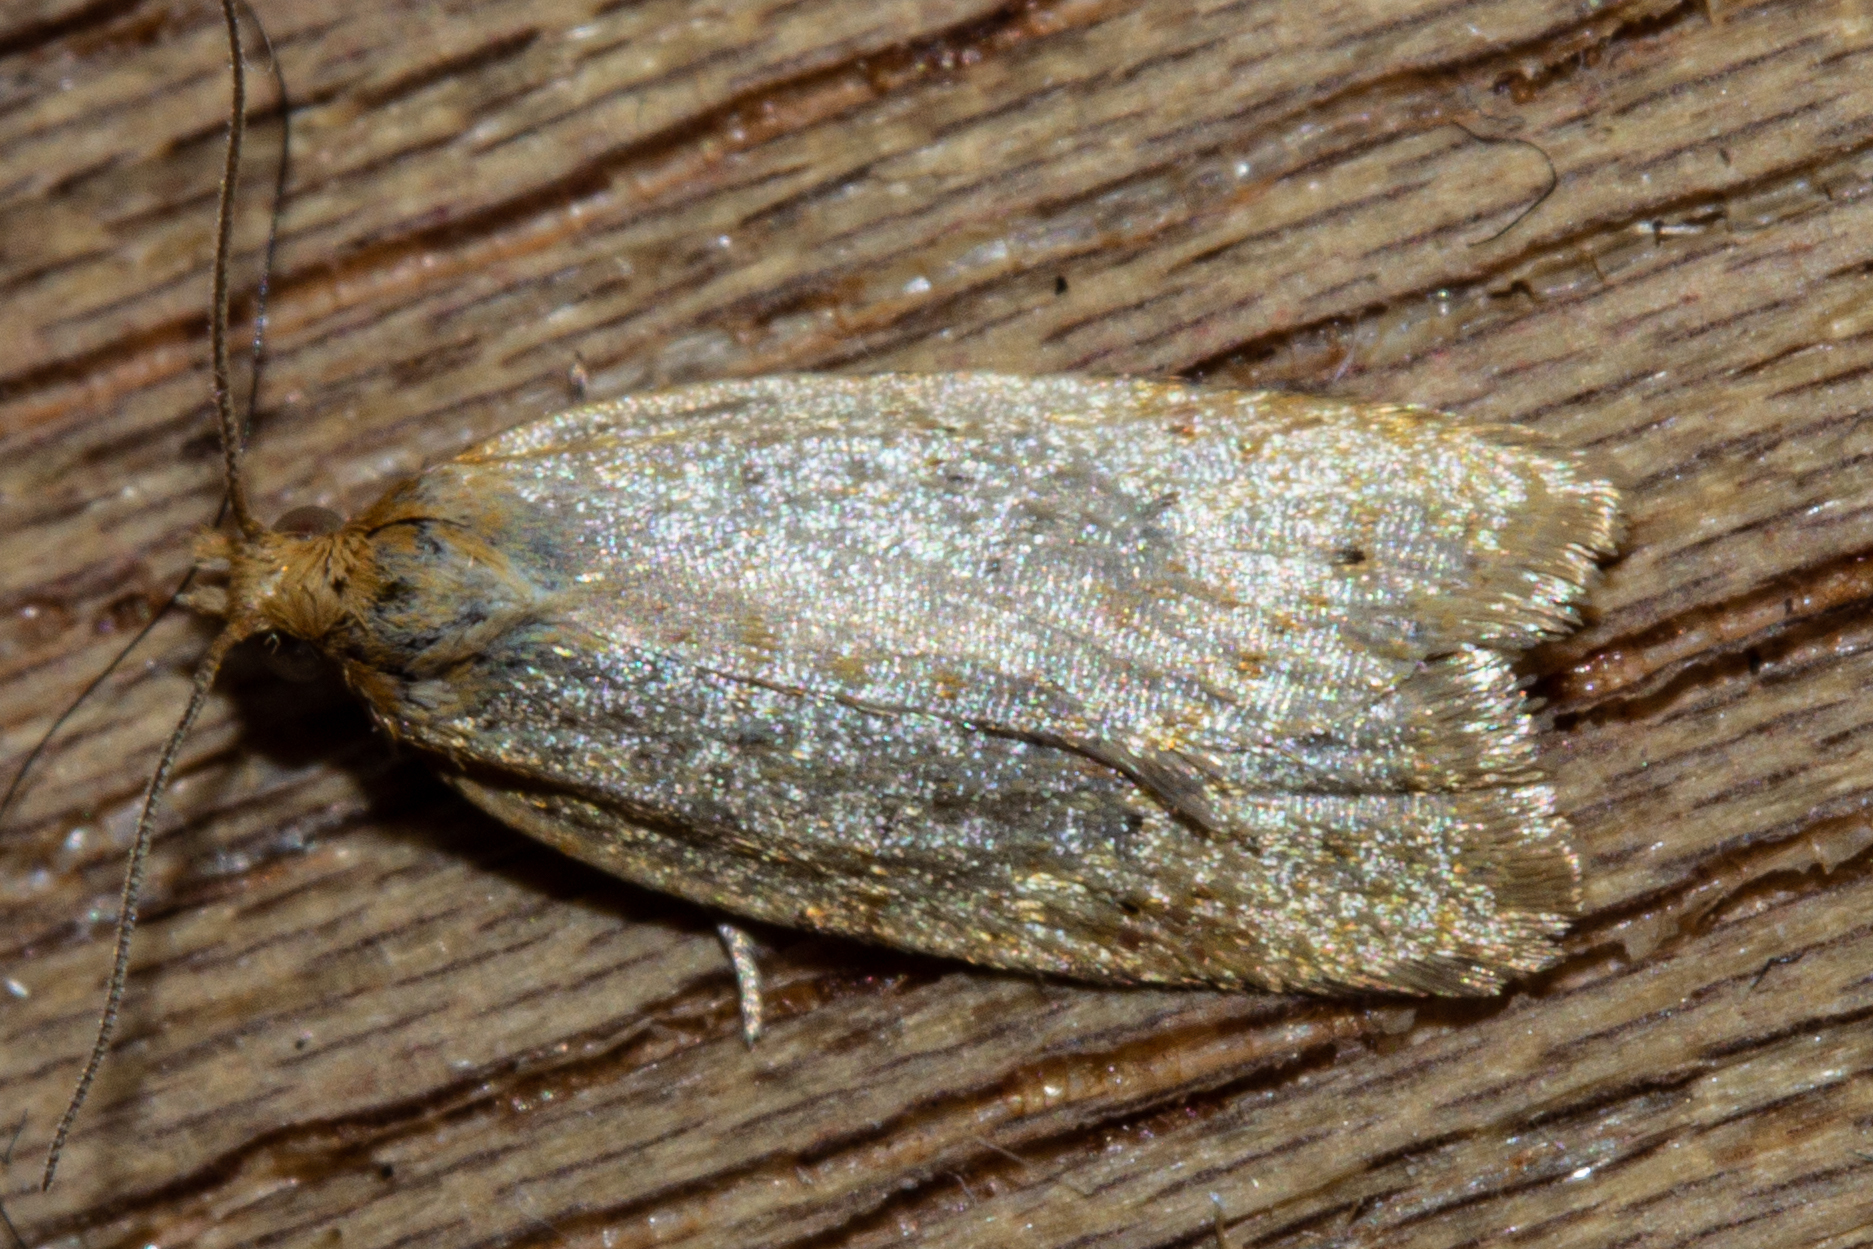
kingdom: Animalia
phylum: Arthropoda
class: Insecta
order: Lepidoptera
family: Tortricidae
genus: Clepsis
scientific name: Clepsis
